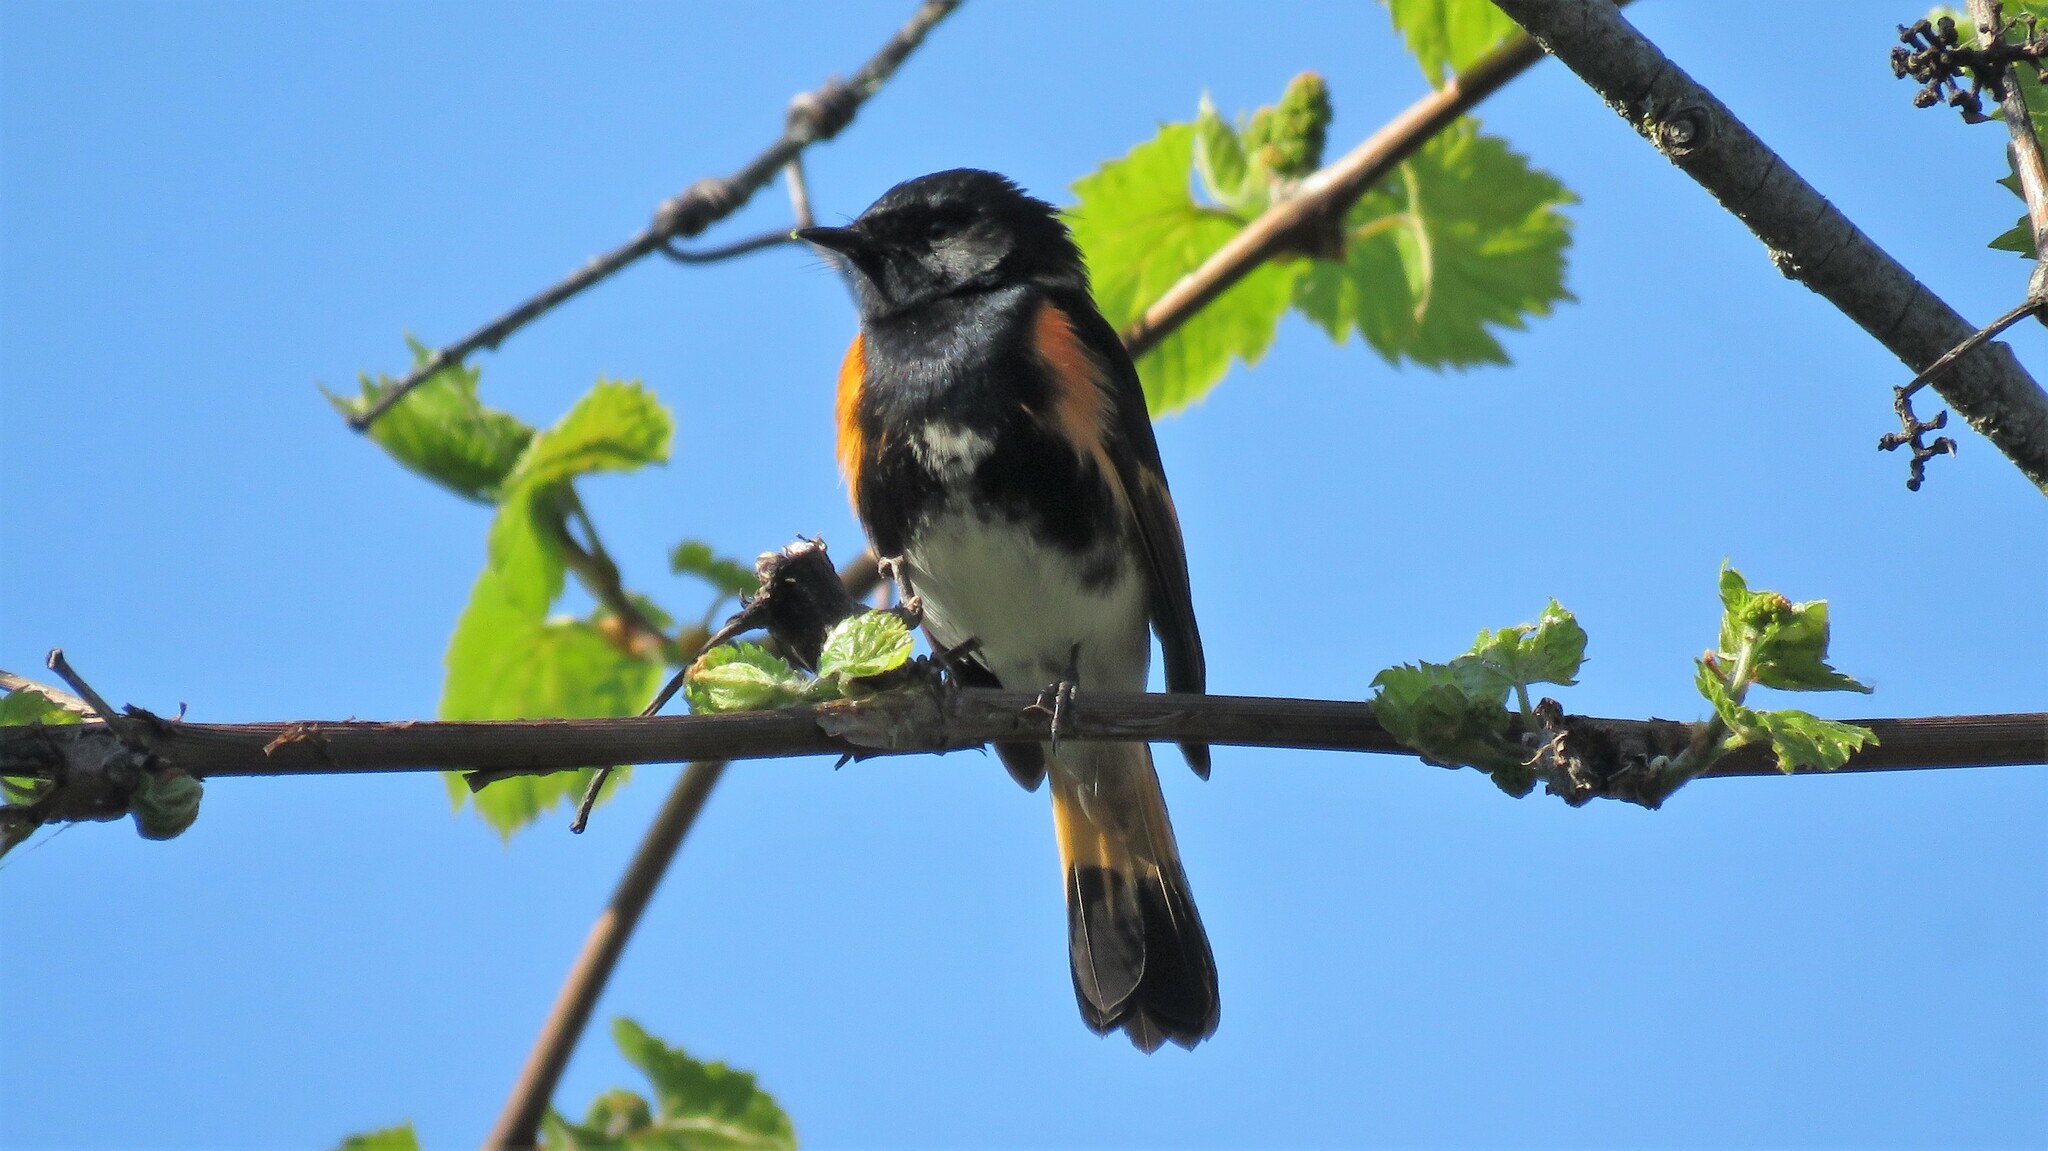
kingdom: Animalia
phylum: Chordata
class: Aves
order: Passeriformes
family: Parulidae
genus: Setophaga
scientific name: Setophaga ruticilla
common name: American redstart
